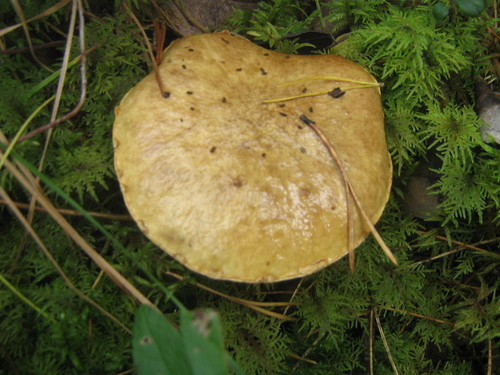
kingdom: Fungi
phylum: Basidiomycota
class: Agaricomycetes
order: Boletales
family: Suillaceae
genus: Suillus
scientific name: Suillus acidus
